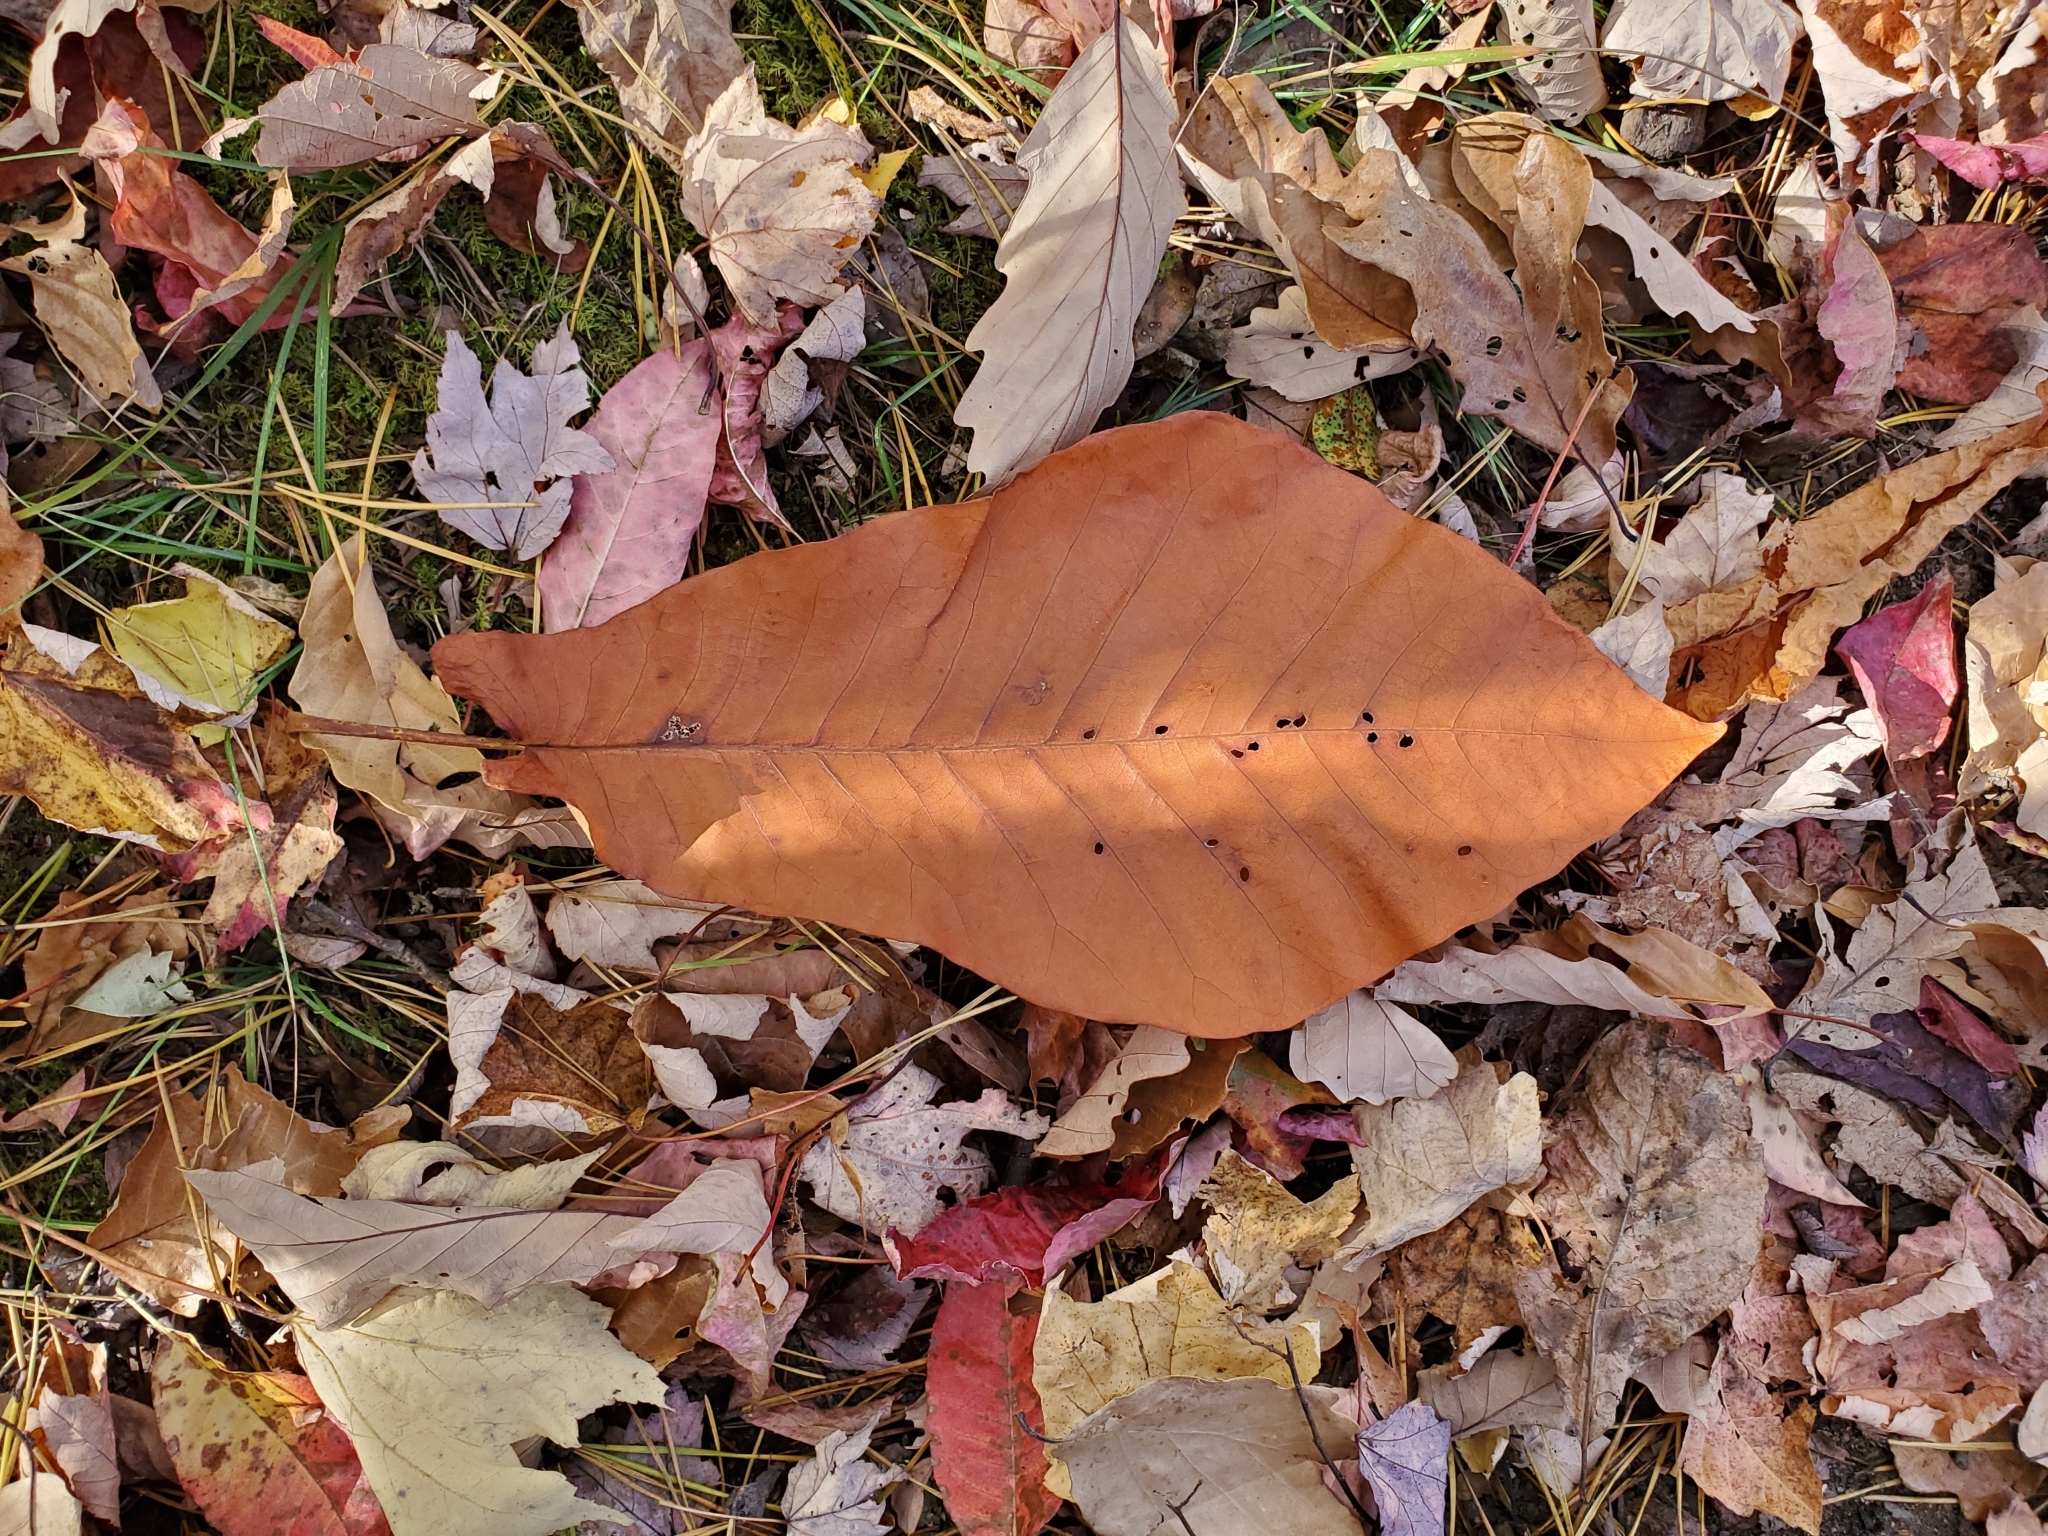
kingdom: Plantae
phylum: Tracheophyta
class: Magnoliopsida
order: Magnoliales
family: Magnoliaceae
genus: Magnolia
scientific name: Magnolia fraseri
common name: Fraser's magnolia
